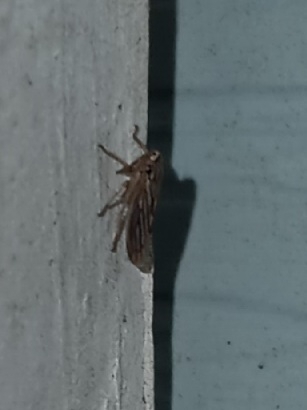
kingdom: Animalia
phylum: Arthropoda
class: Insecta
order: Hemiptera
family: Cicadellidae
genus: Exitianus
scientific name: Exitianus exitiosus
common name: Gray lawn leafhopper
